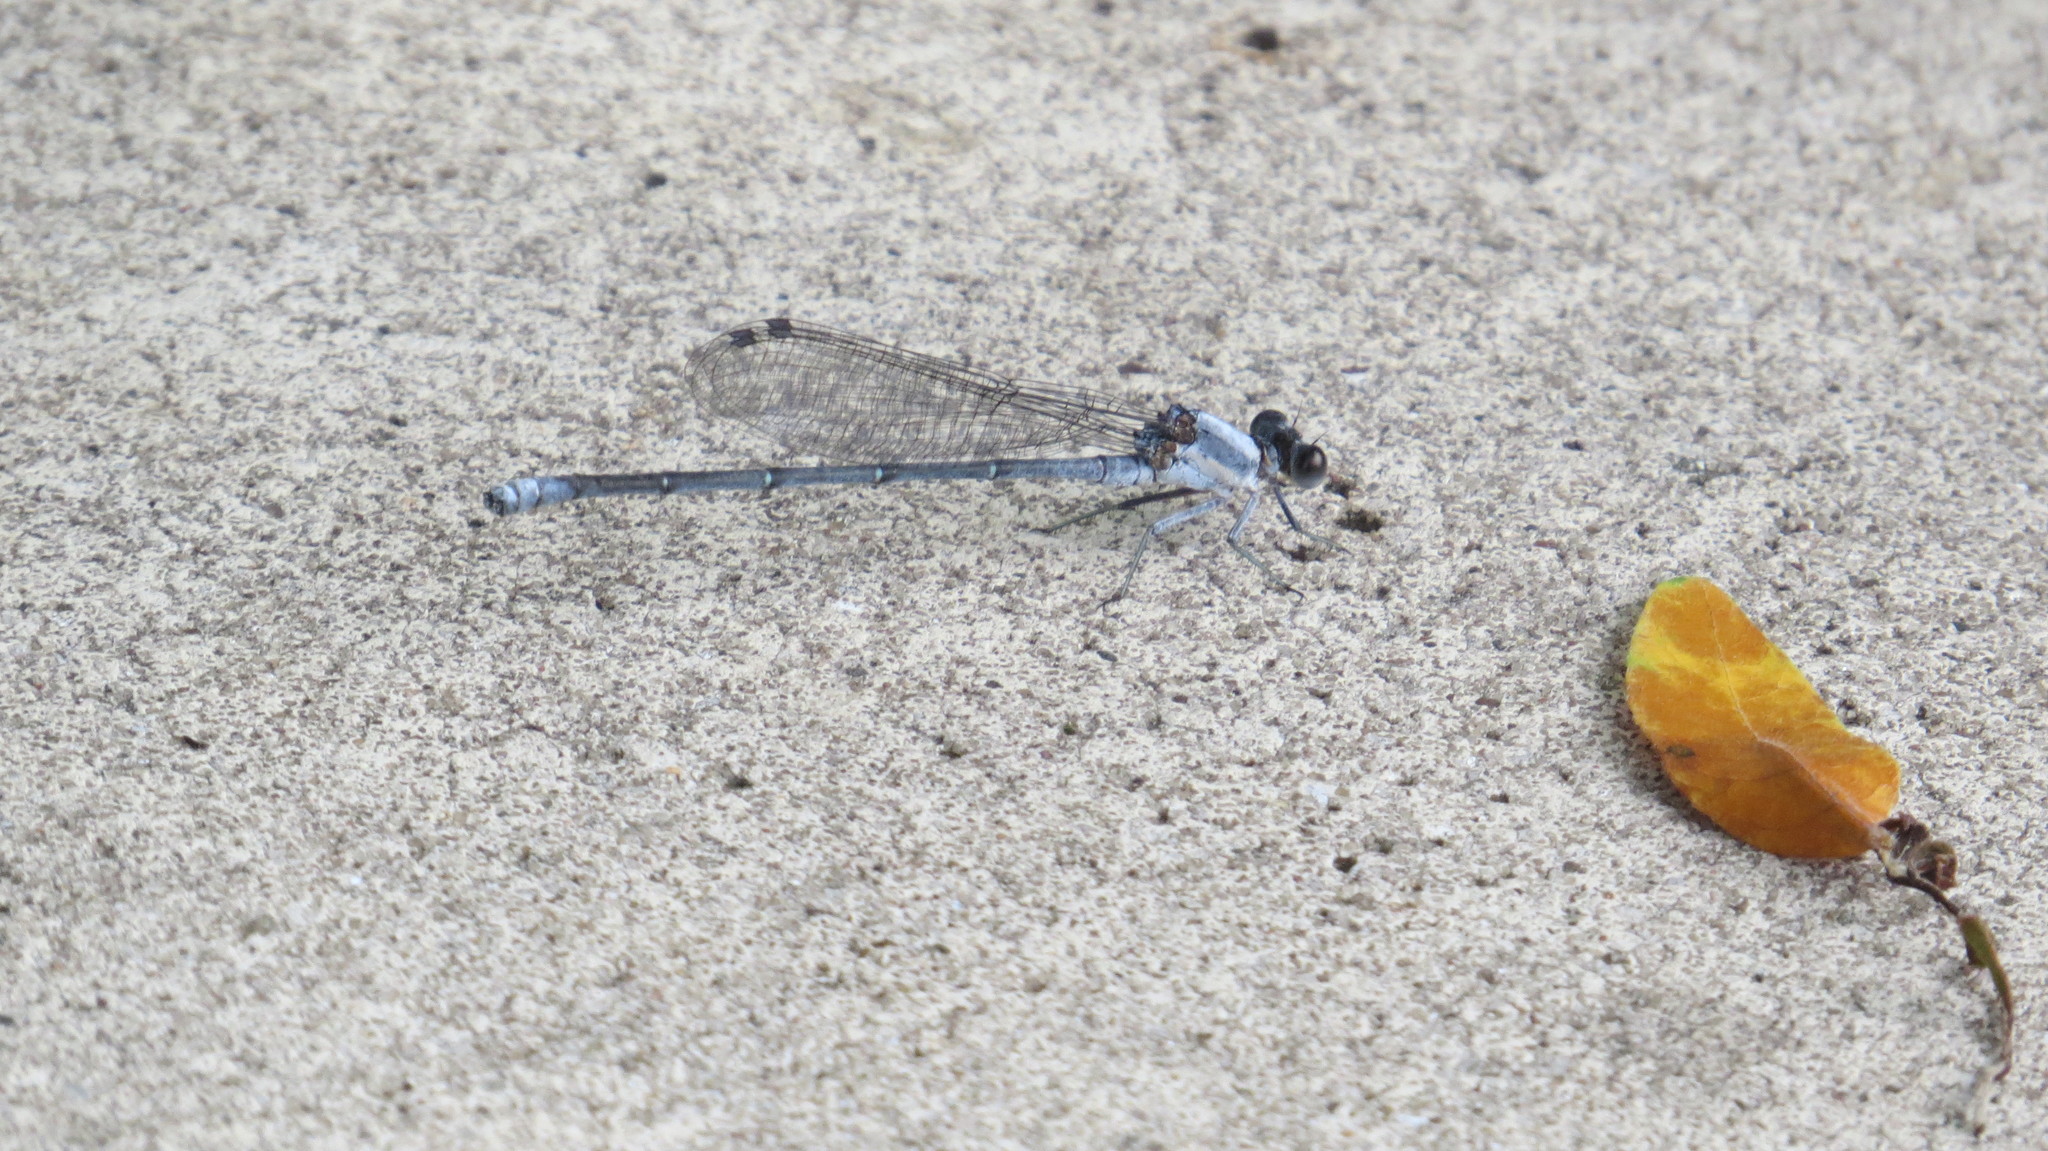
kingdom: Animalia
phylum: Arthropoda
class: Insecta
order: Odonata
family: Coenagrionidae
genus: Argia
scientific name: Argia moesta
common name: Powdered dancer
